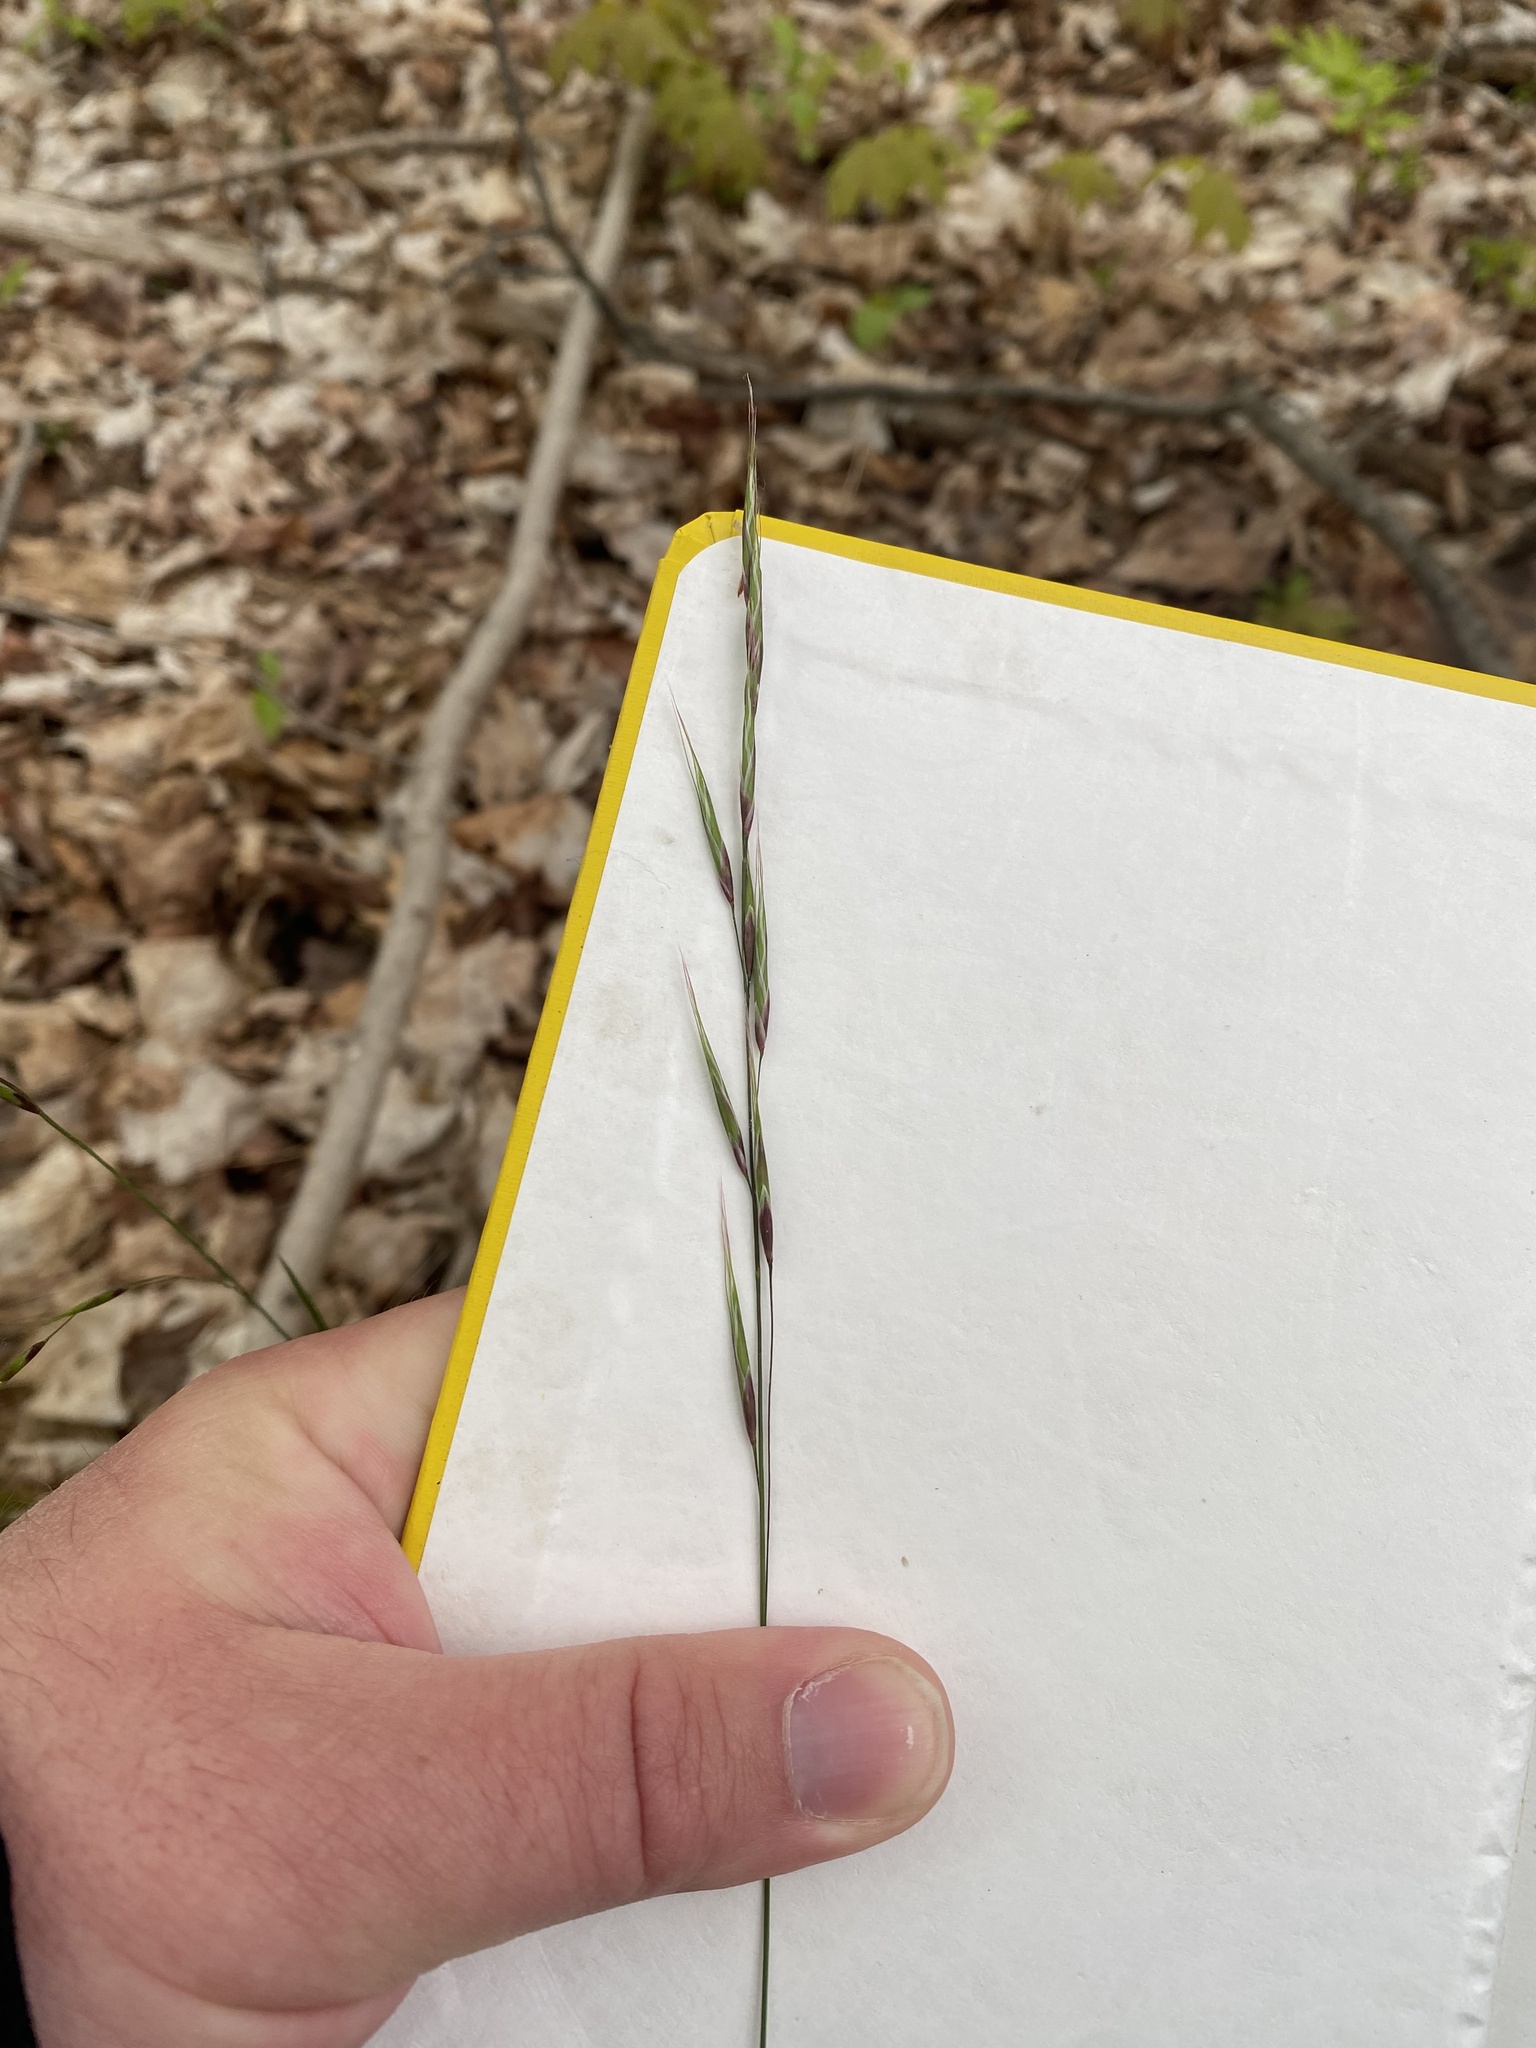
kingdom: Plantae
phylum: Tracheophyta
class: Liliopsida
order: Poales
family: Poaceae
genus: Schizachne
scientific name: Schizachne purpurascens
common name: False melic
